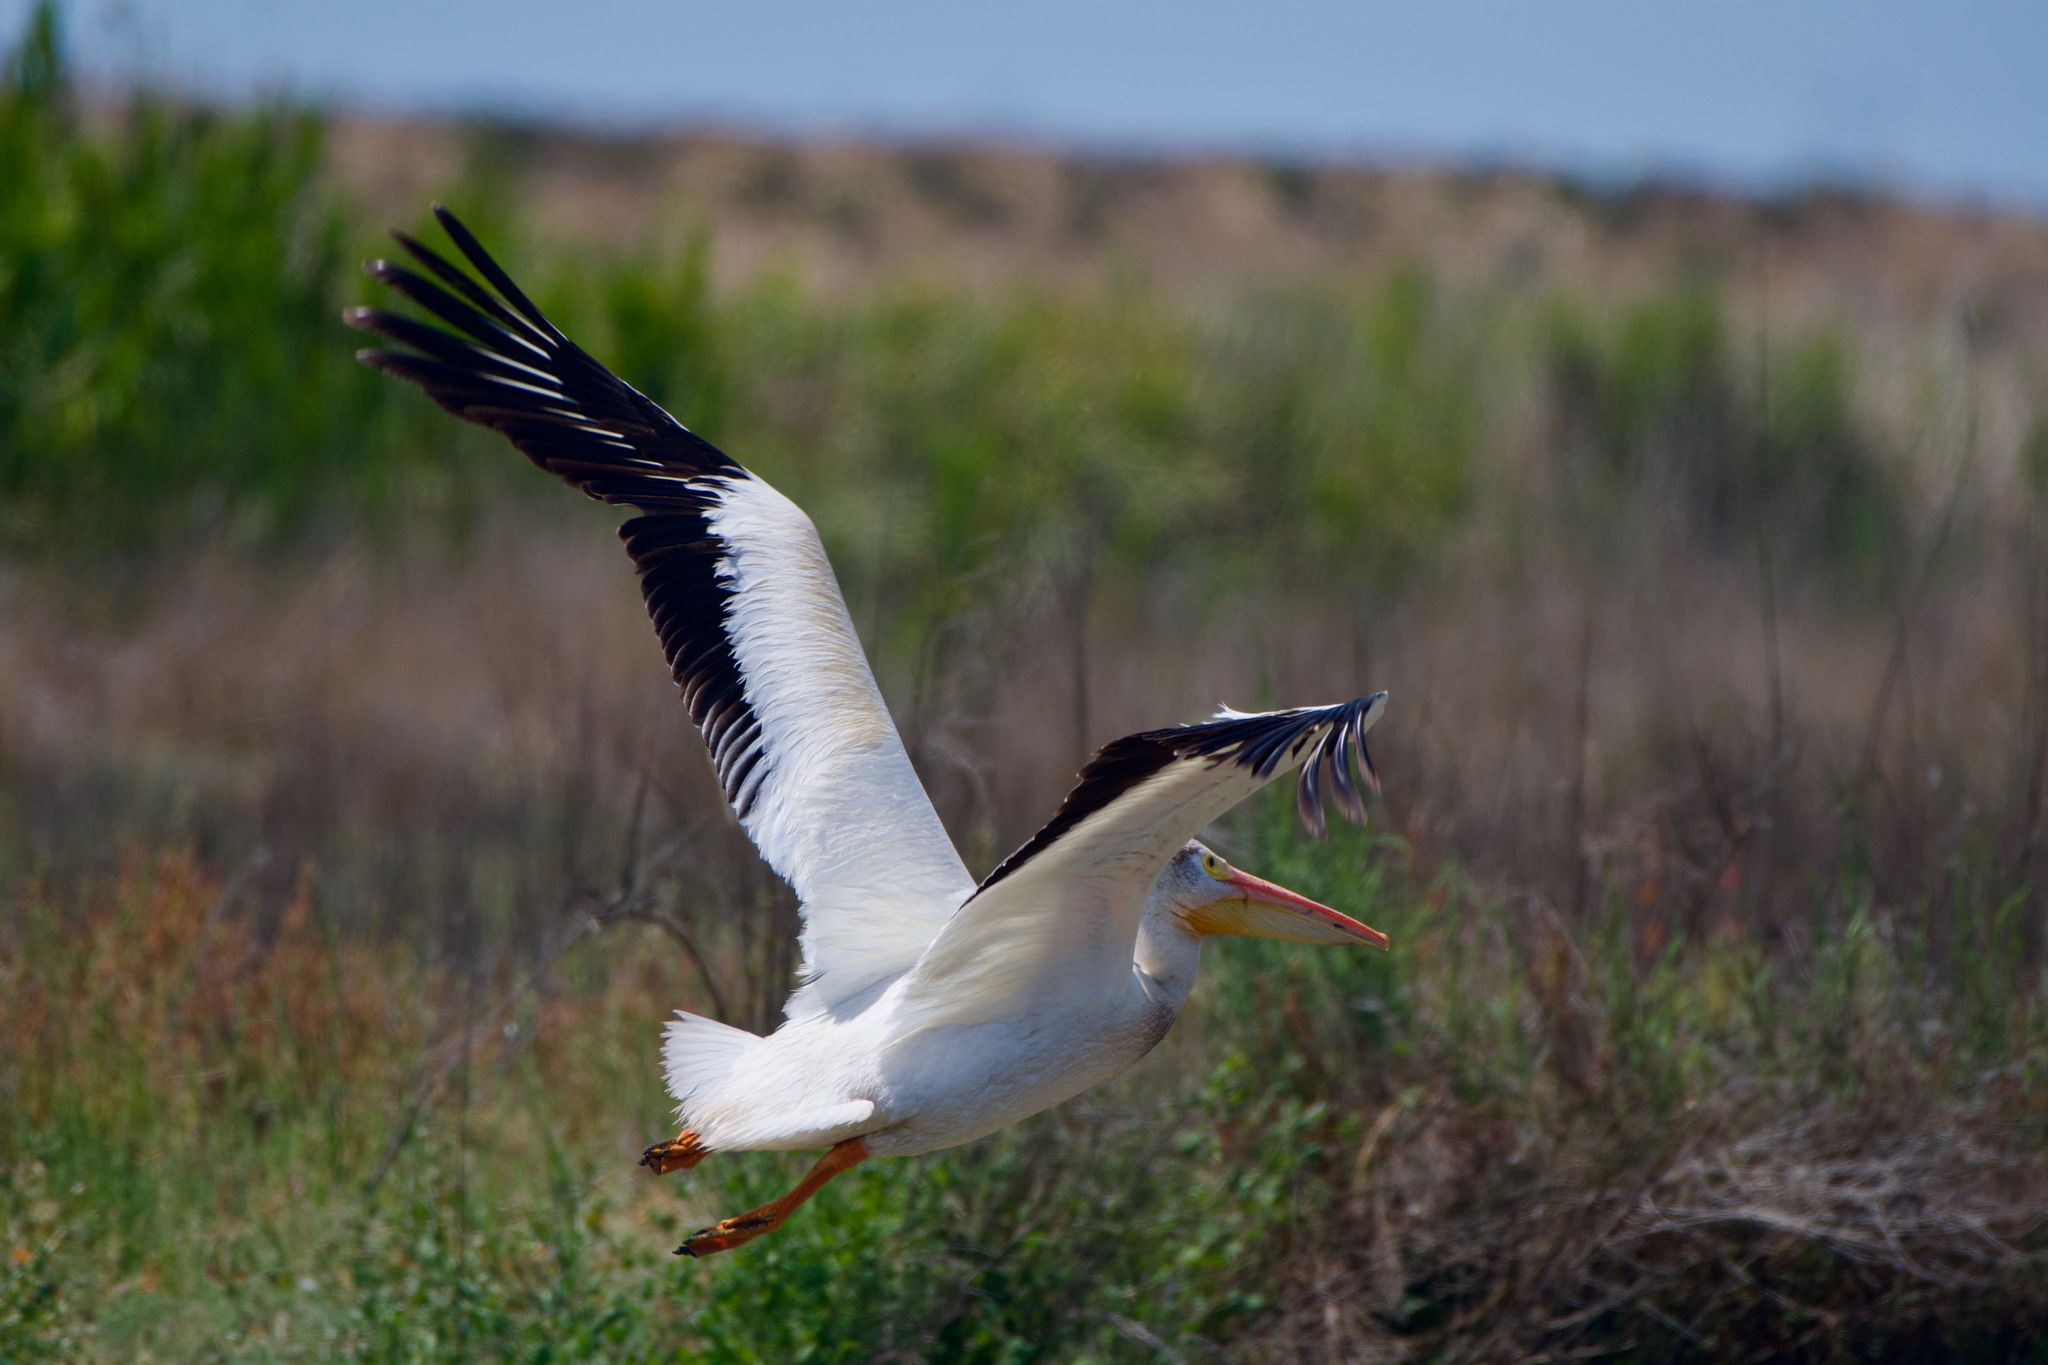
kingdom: Animalia
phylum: Chordata
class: Aves
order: Pelecaniformes
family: Pelecanidae
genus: Pelecanus
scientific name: Pelecanus erythrorhynchos
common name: American white pelican
